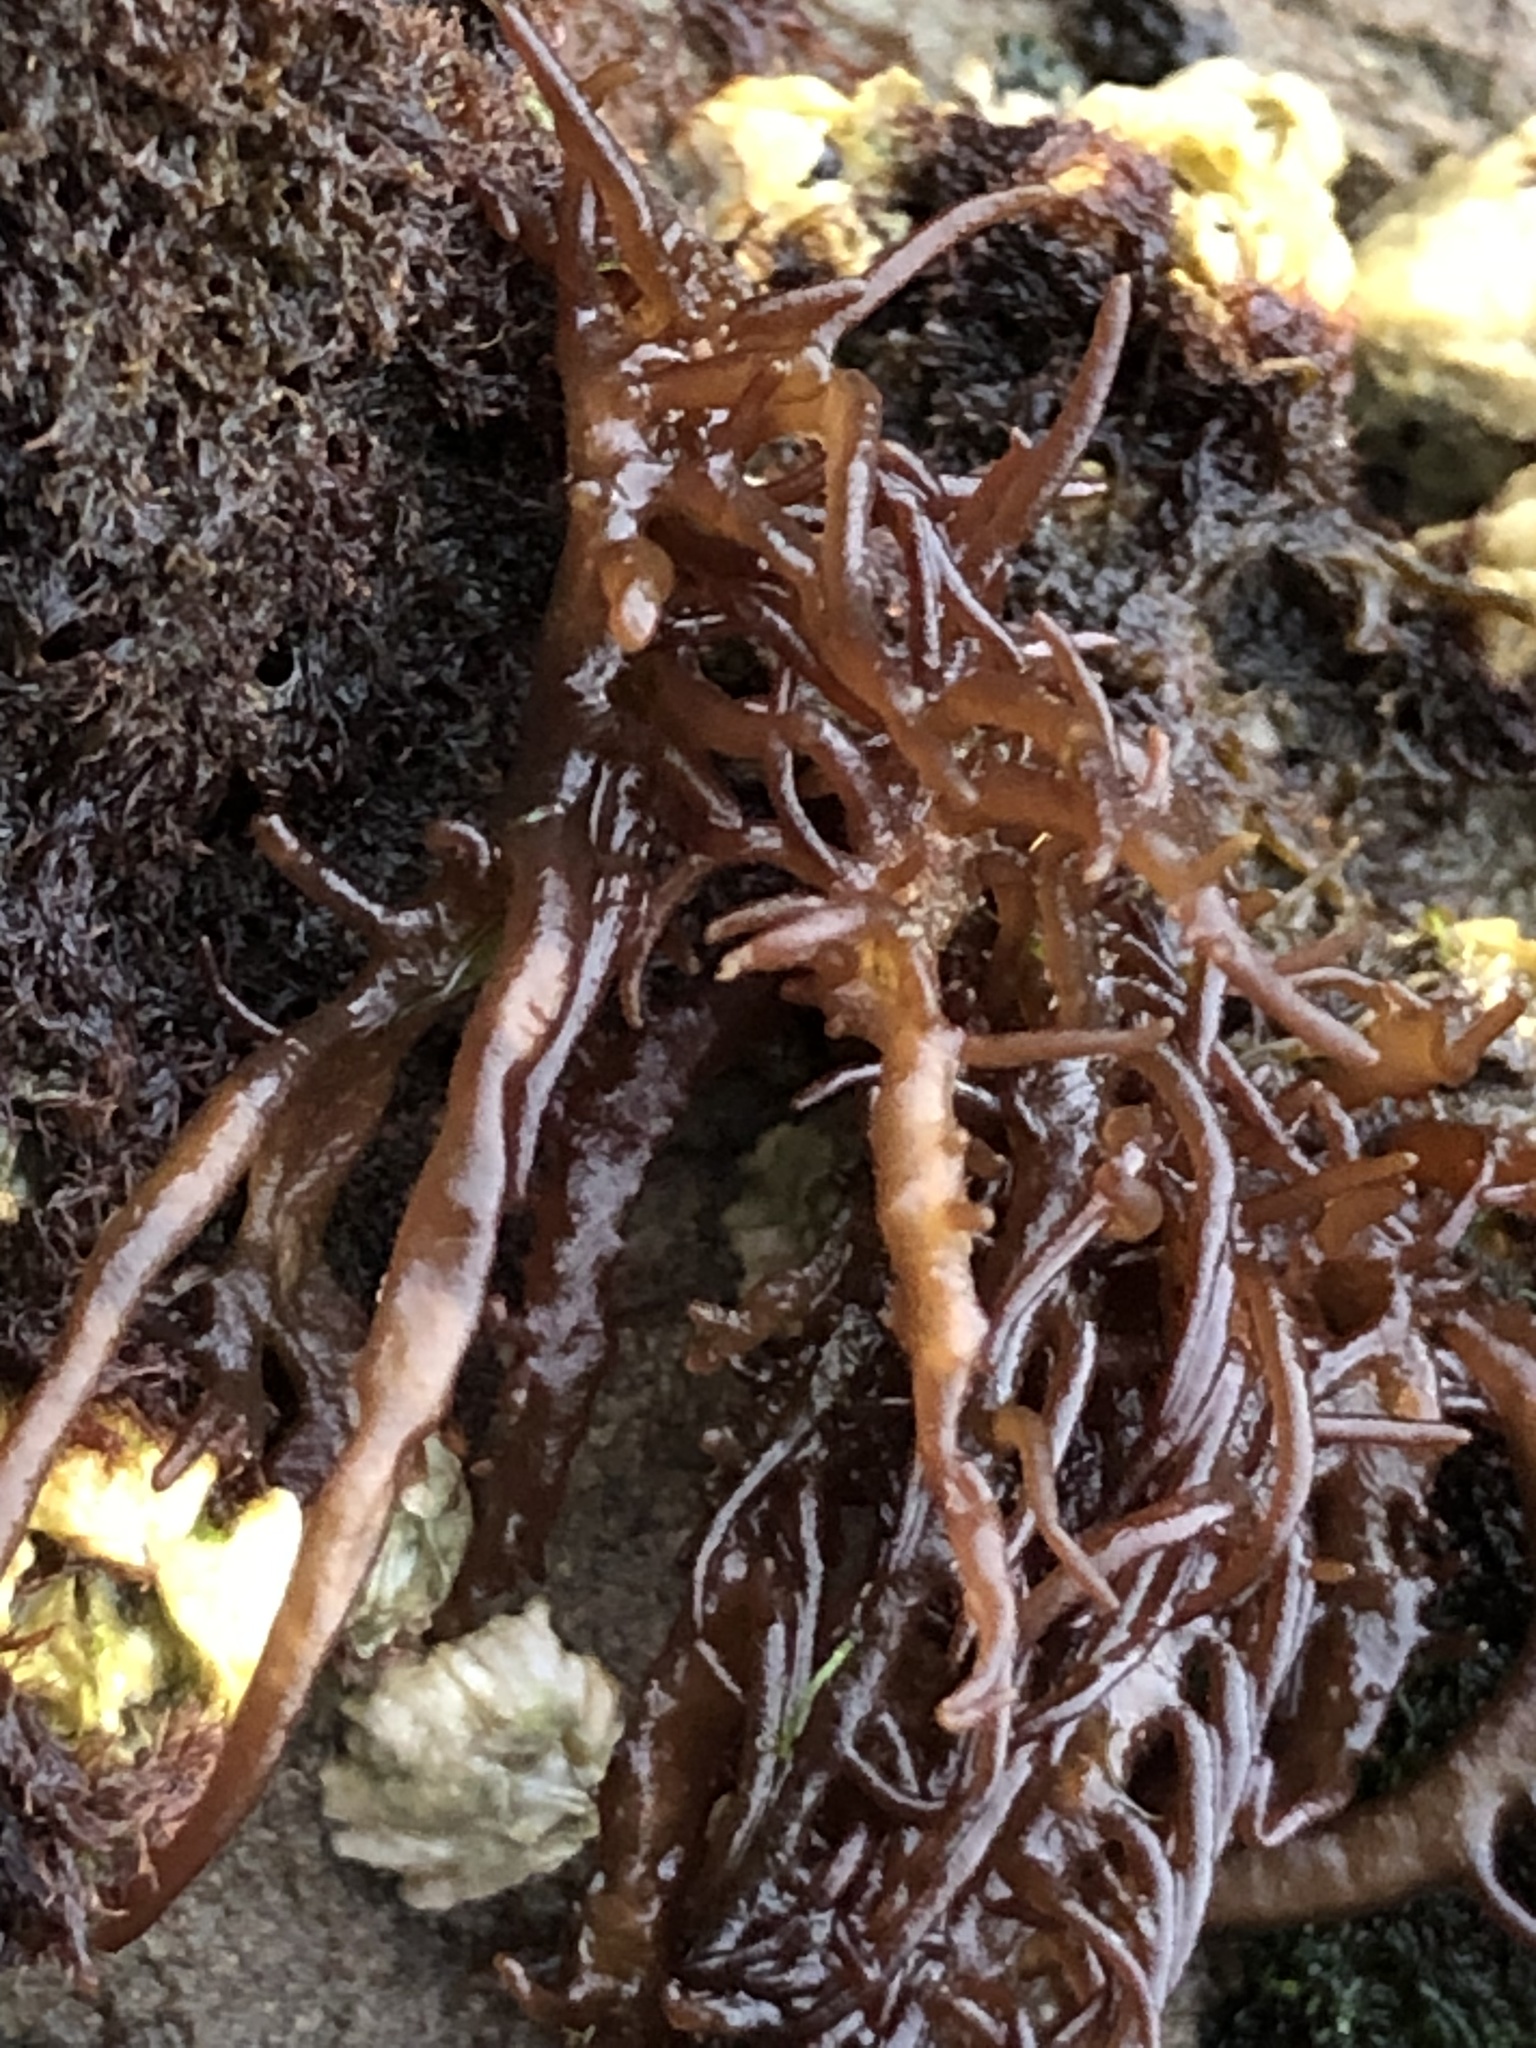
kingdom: Plantae
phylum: Rhodophyta
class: Florideophyceae
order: Nemaliales
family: Liagoraceae
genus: Cumagloia
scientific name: Cumagloia andersonii
